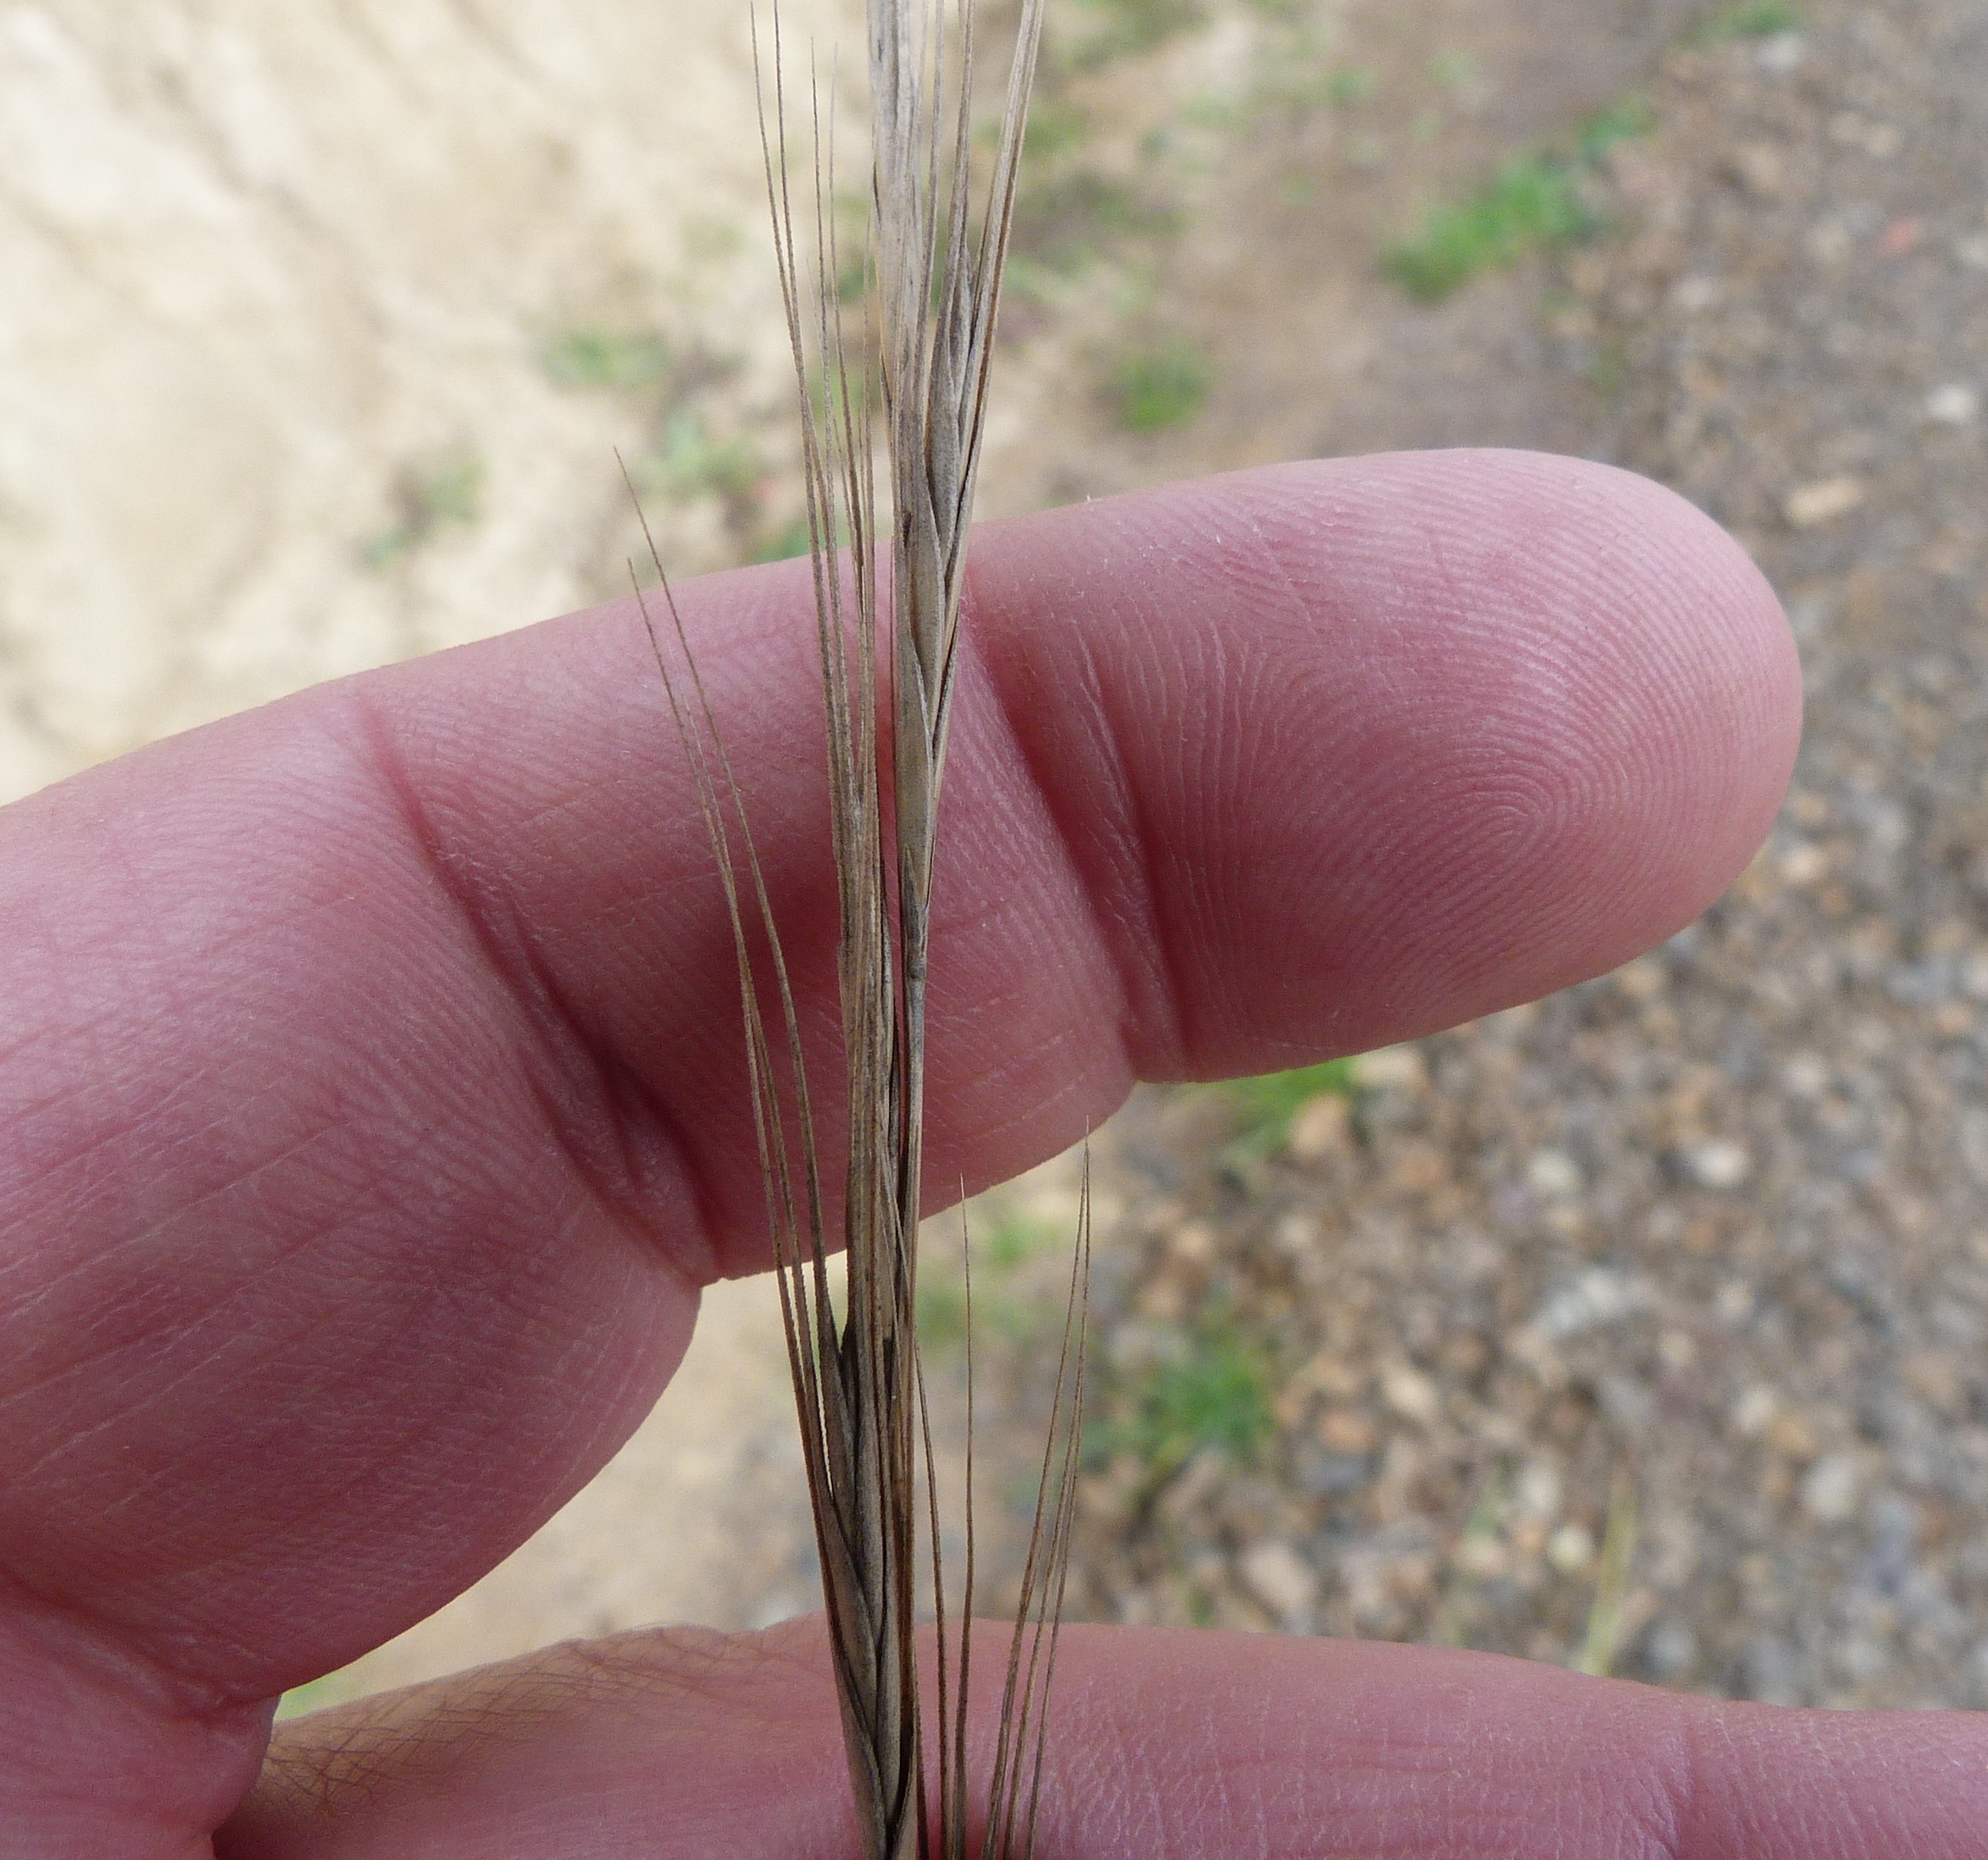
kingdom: Plantae
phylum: Tracheophyta
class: Liliopsida
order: Poales
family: Poaceae
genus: Anthosachne
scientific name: Anthosachne rectiseta
